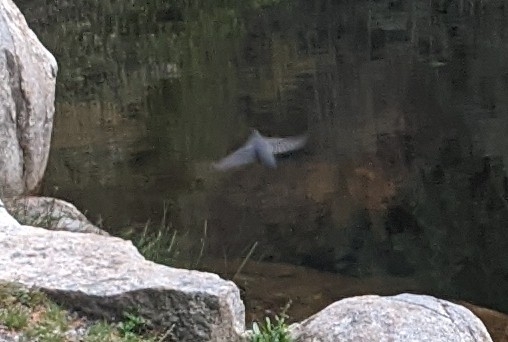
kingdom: Animalia
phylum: Chordata
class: Aves
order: Passeriformes
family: Cinclidae
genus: Cinclus
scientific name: Cinclus mexicanus
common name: American dipper
